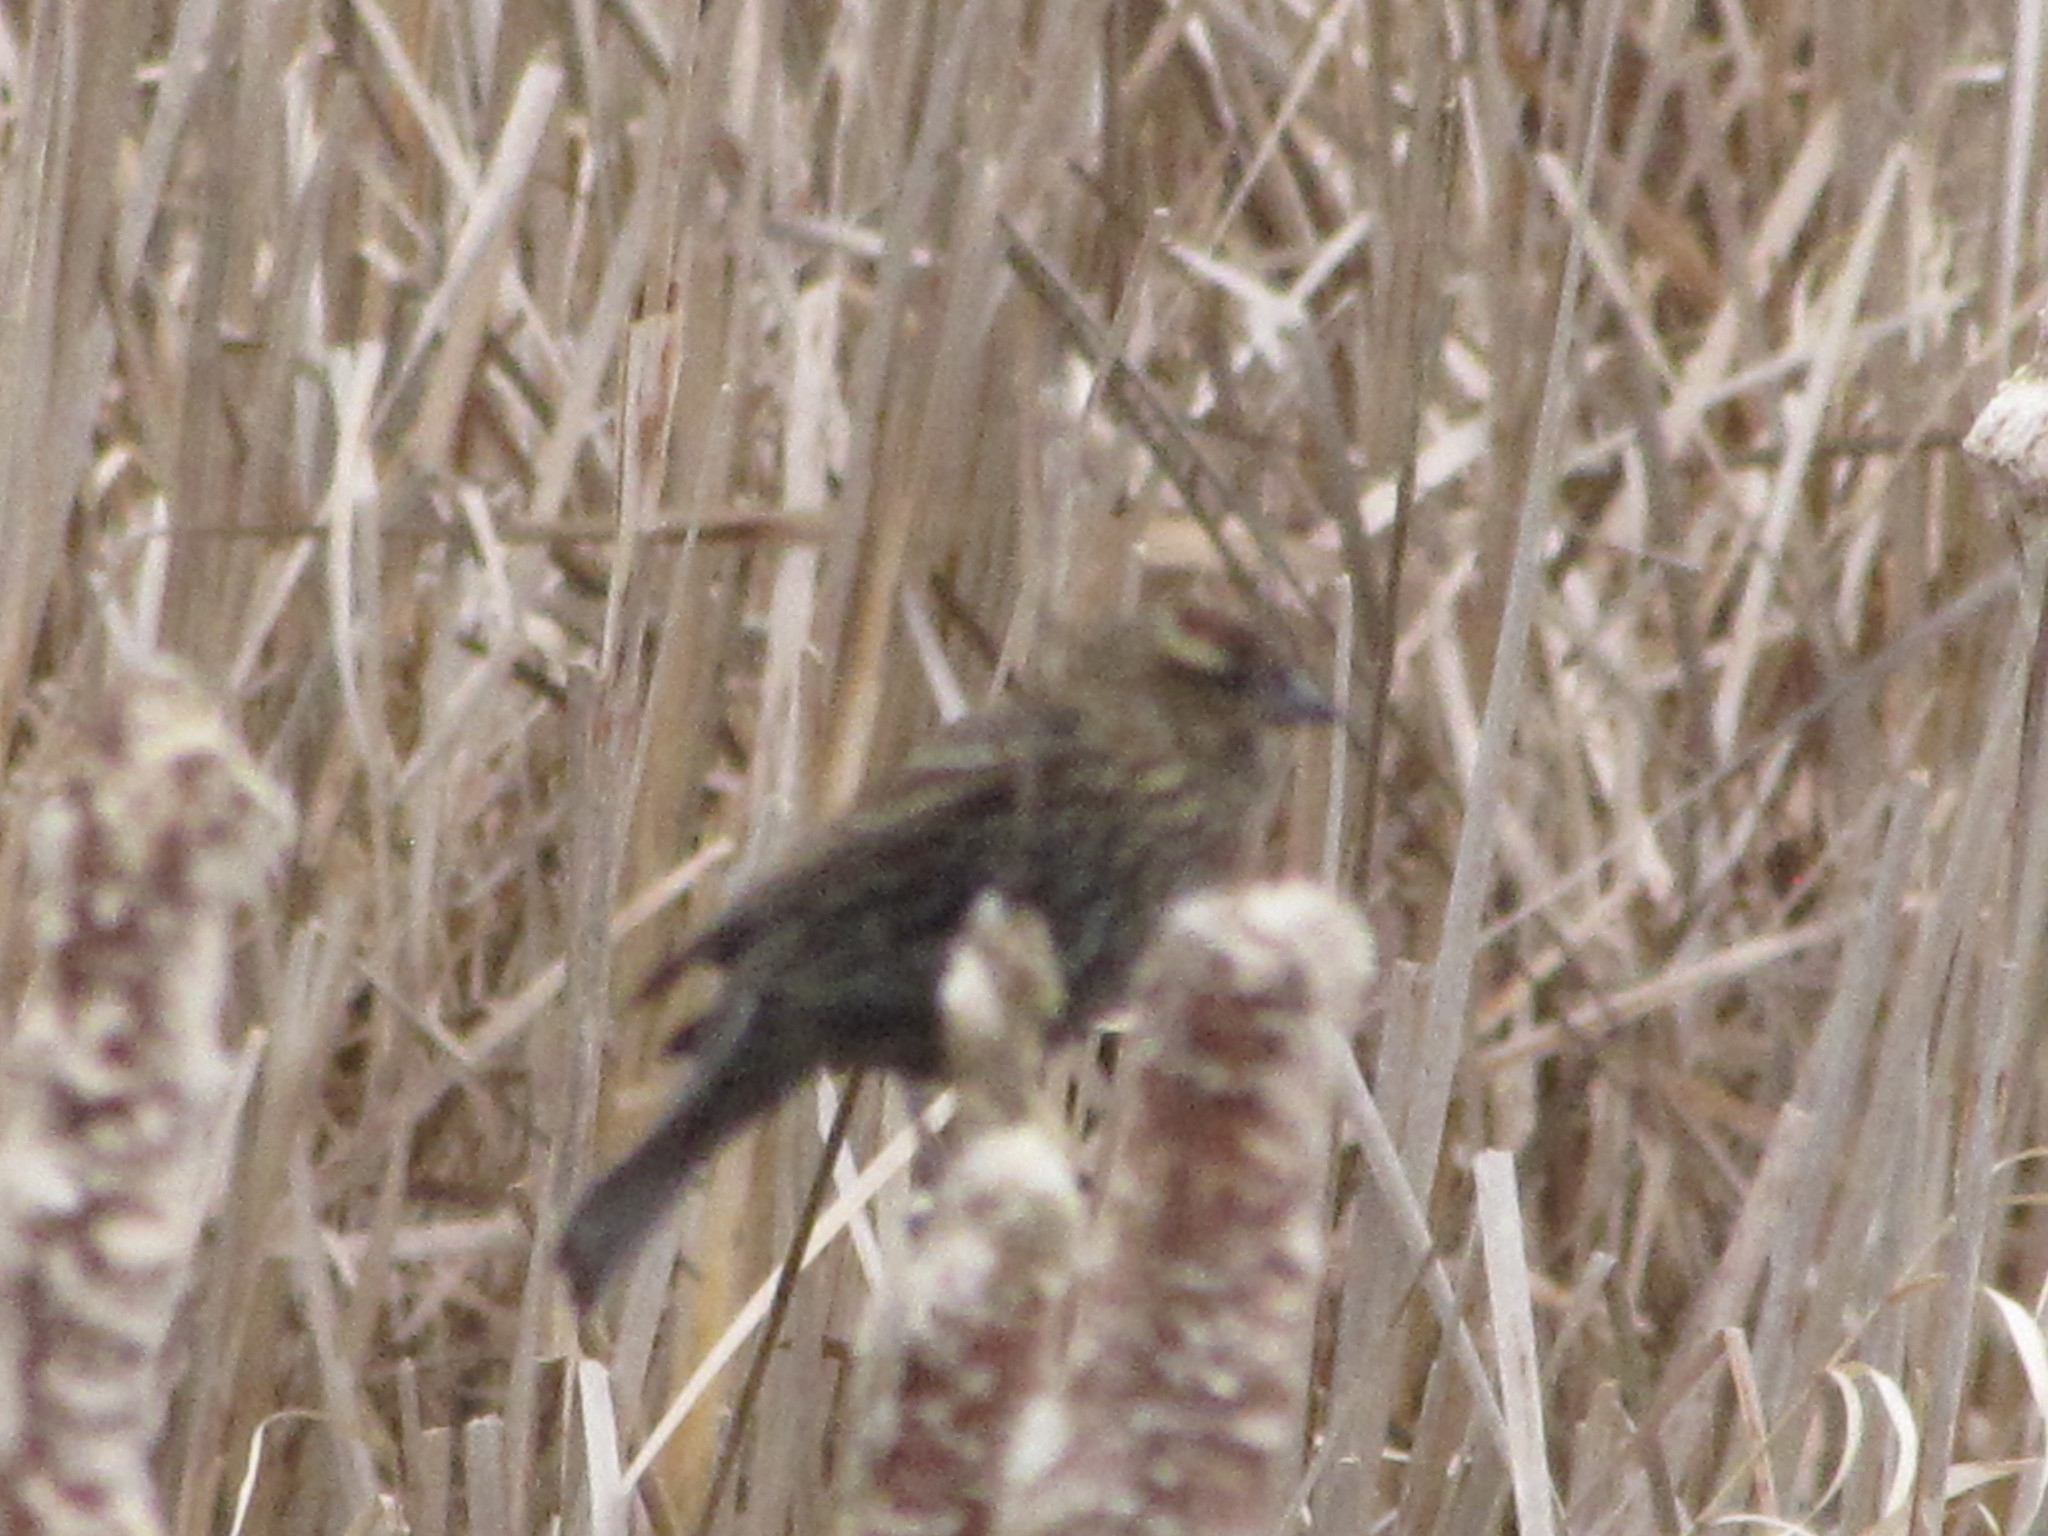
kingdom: Animalia
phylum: Chordata
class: Aves
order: Passeriformes
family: Icteridae
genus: Agelaius
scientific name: Agelaius phoeniceus
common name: Red-winged blackbird
